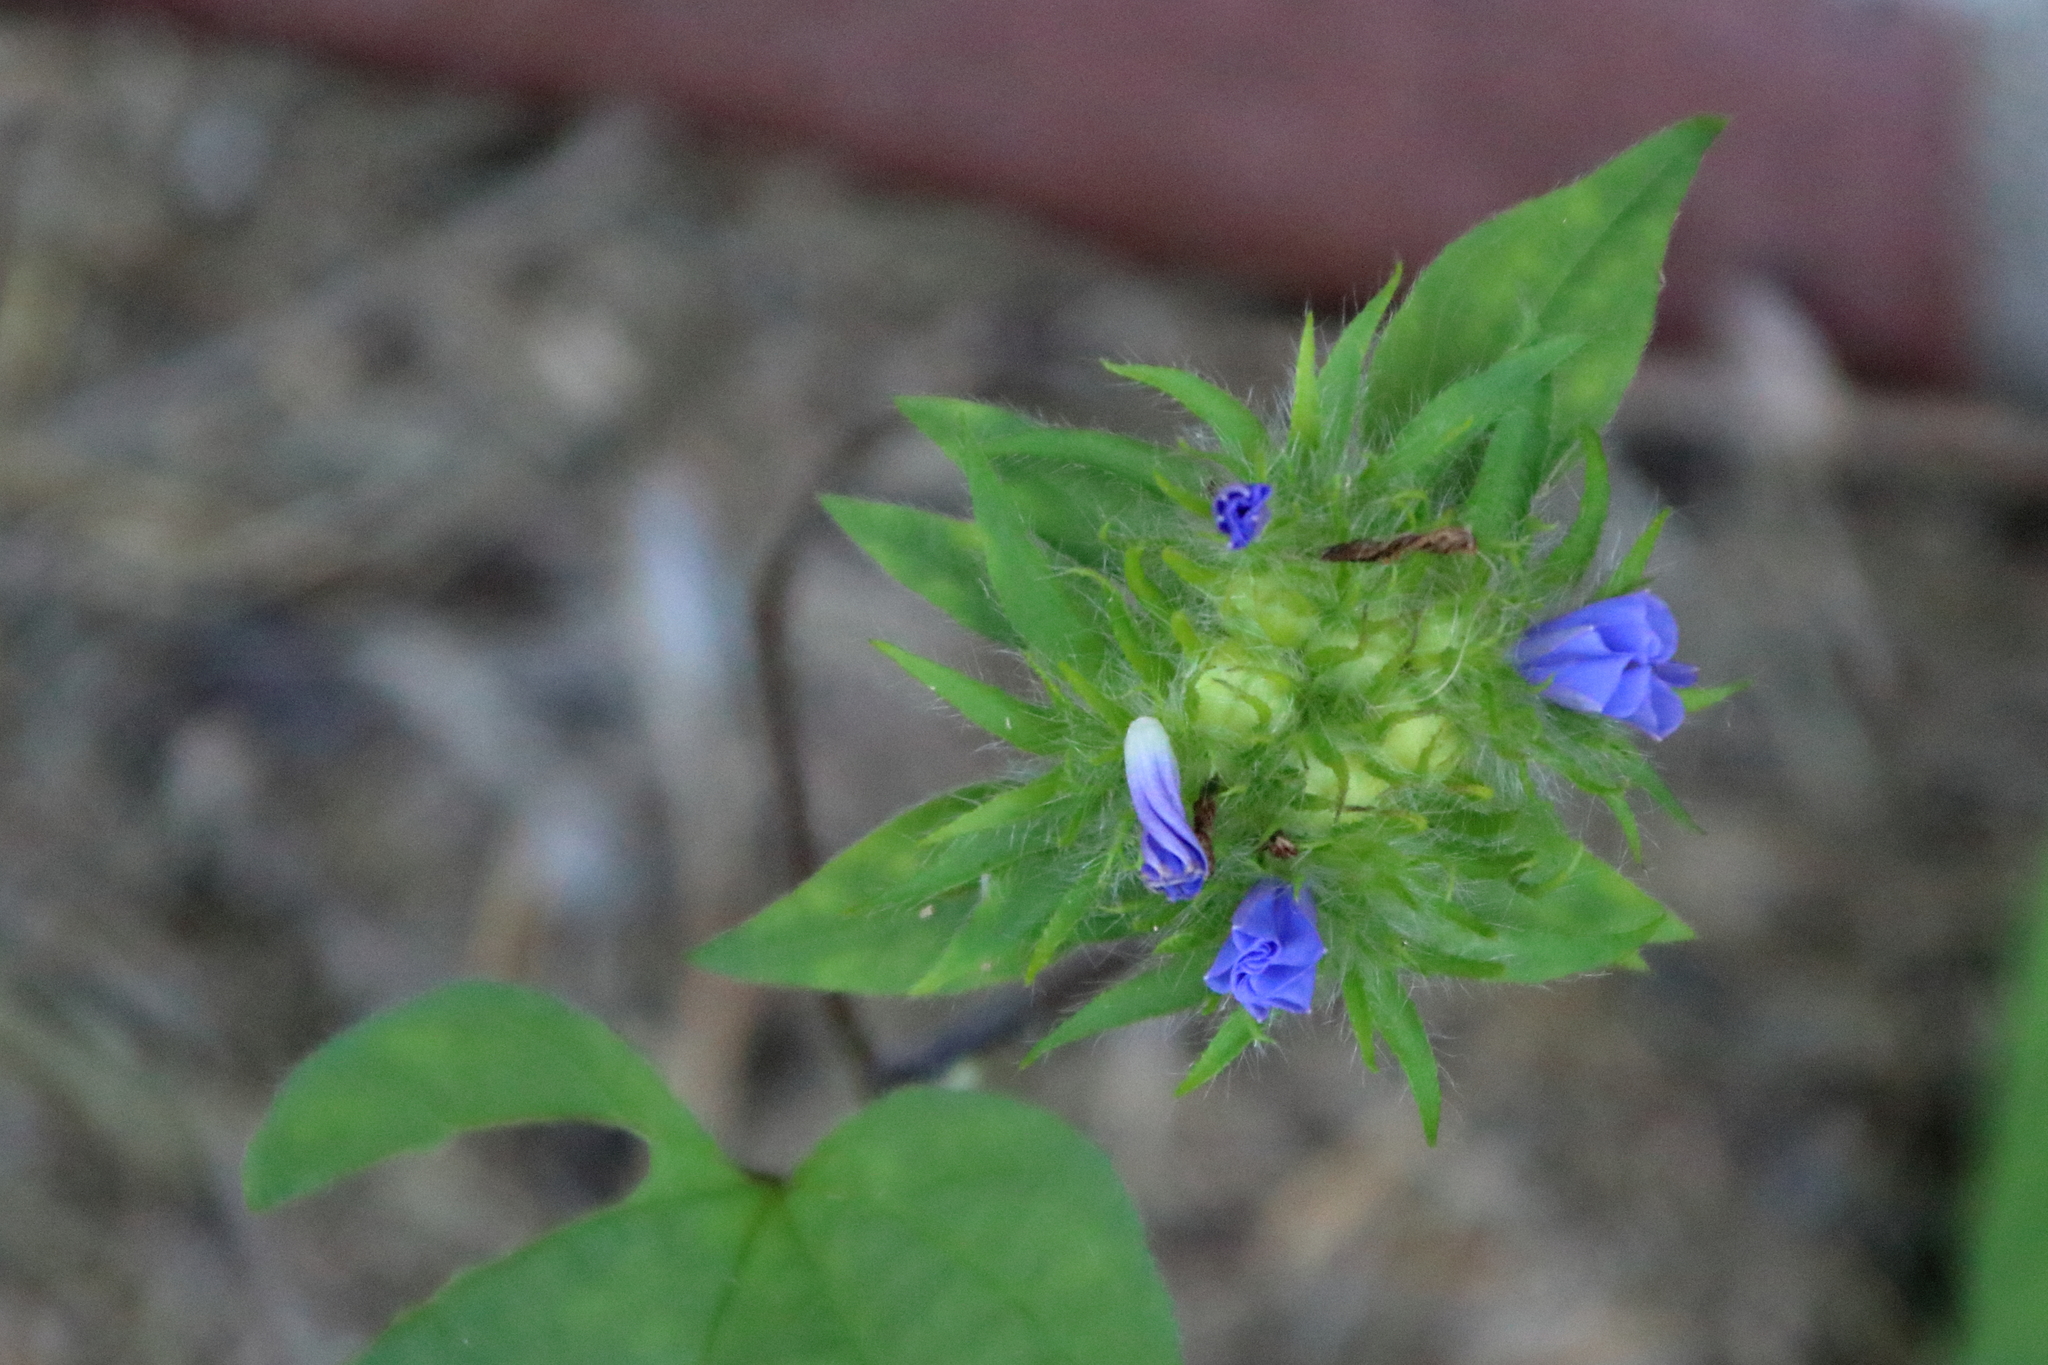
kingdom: Plantae
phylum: Tracheophyta
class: Magnoliopsida
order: Solanales
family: Convolvulaceae
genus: Jacquemontia
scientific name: Jacquemontia tamnifolia
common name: Hairy clustervine
